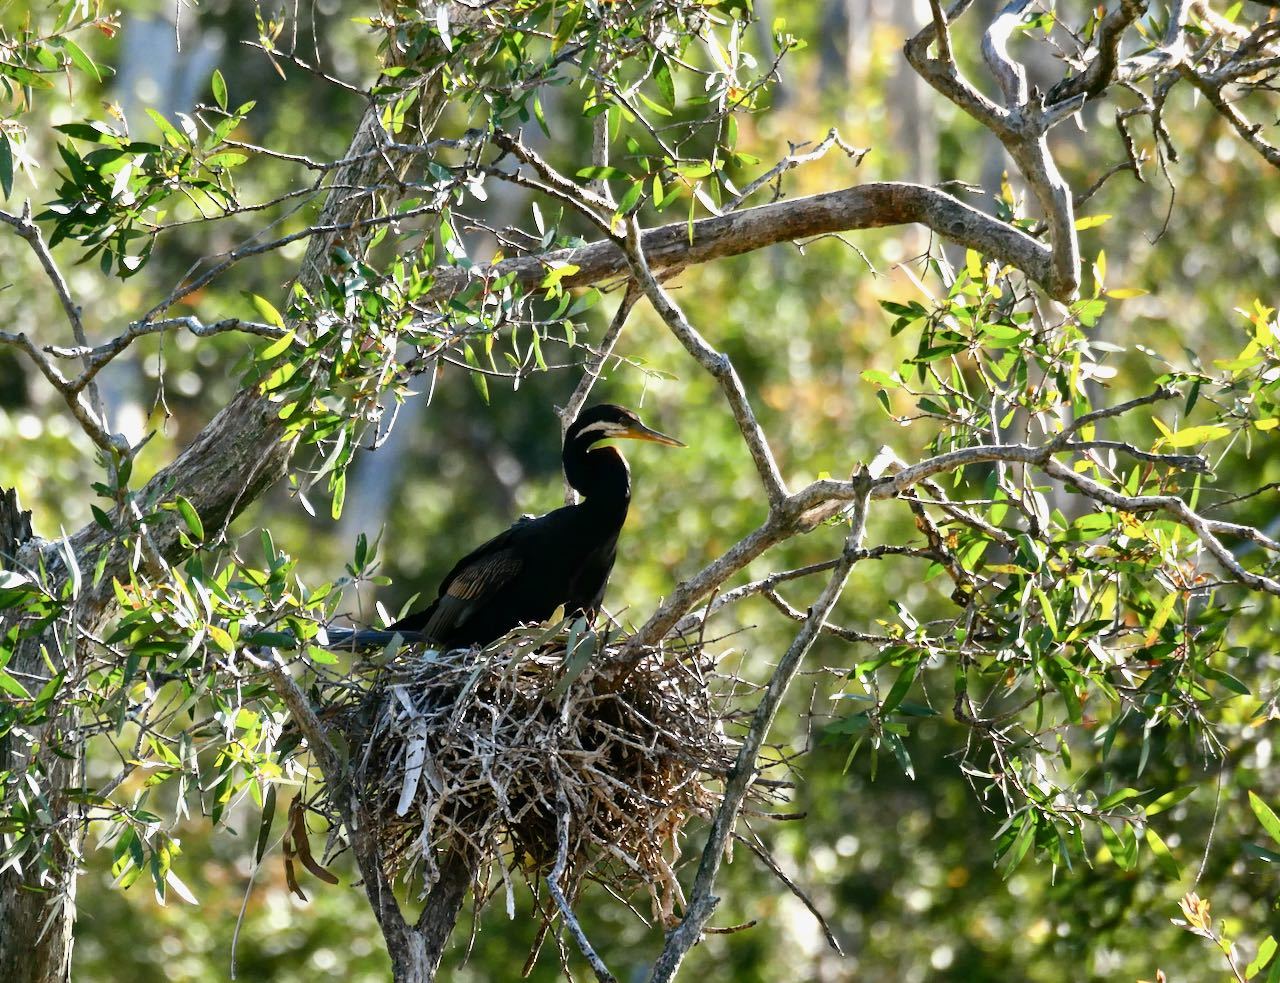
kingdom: Animalia
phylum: Chordata
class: Aves
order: Suliformes
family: Anhingidae
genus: Anhinga
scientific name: Anhinga novaehollandiae
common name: Australasian darter
